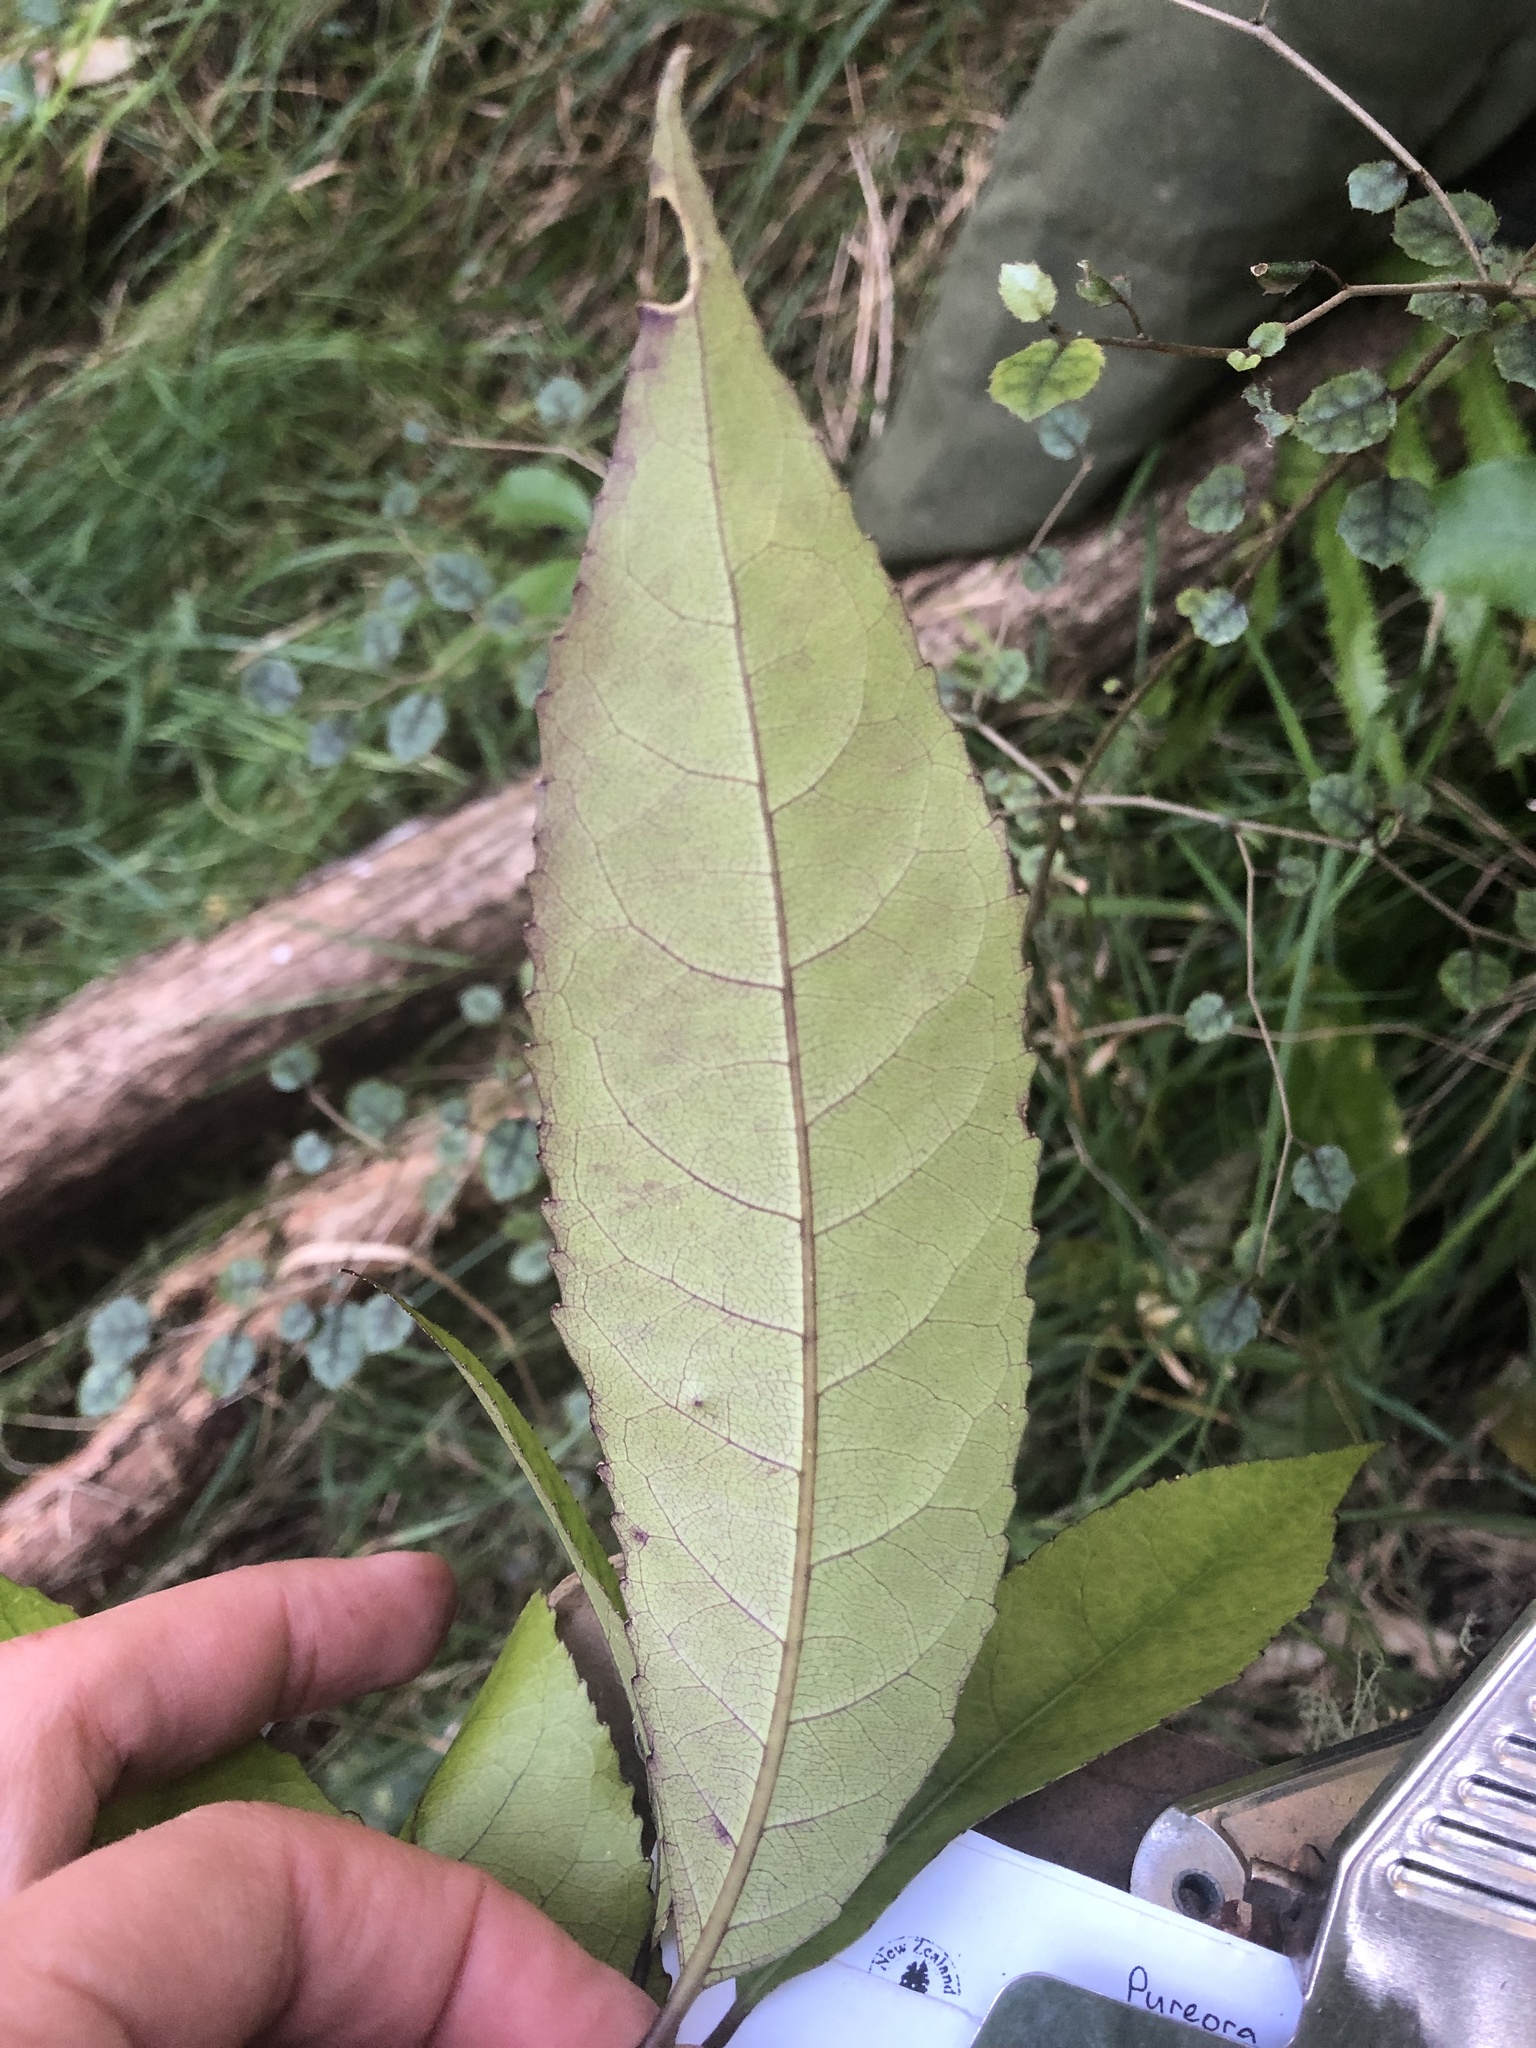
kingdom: Plantae
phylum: Tracheophyta
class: Magnoliopsida
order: Malpighiales
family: Violaceae
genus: Melicytus
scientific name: Melicytus ramiflorus
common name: Mahoe
